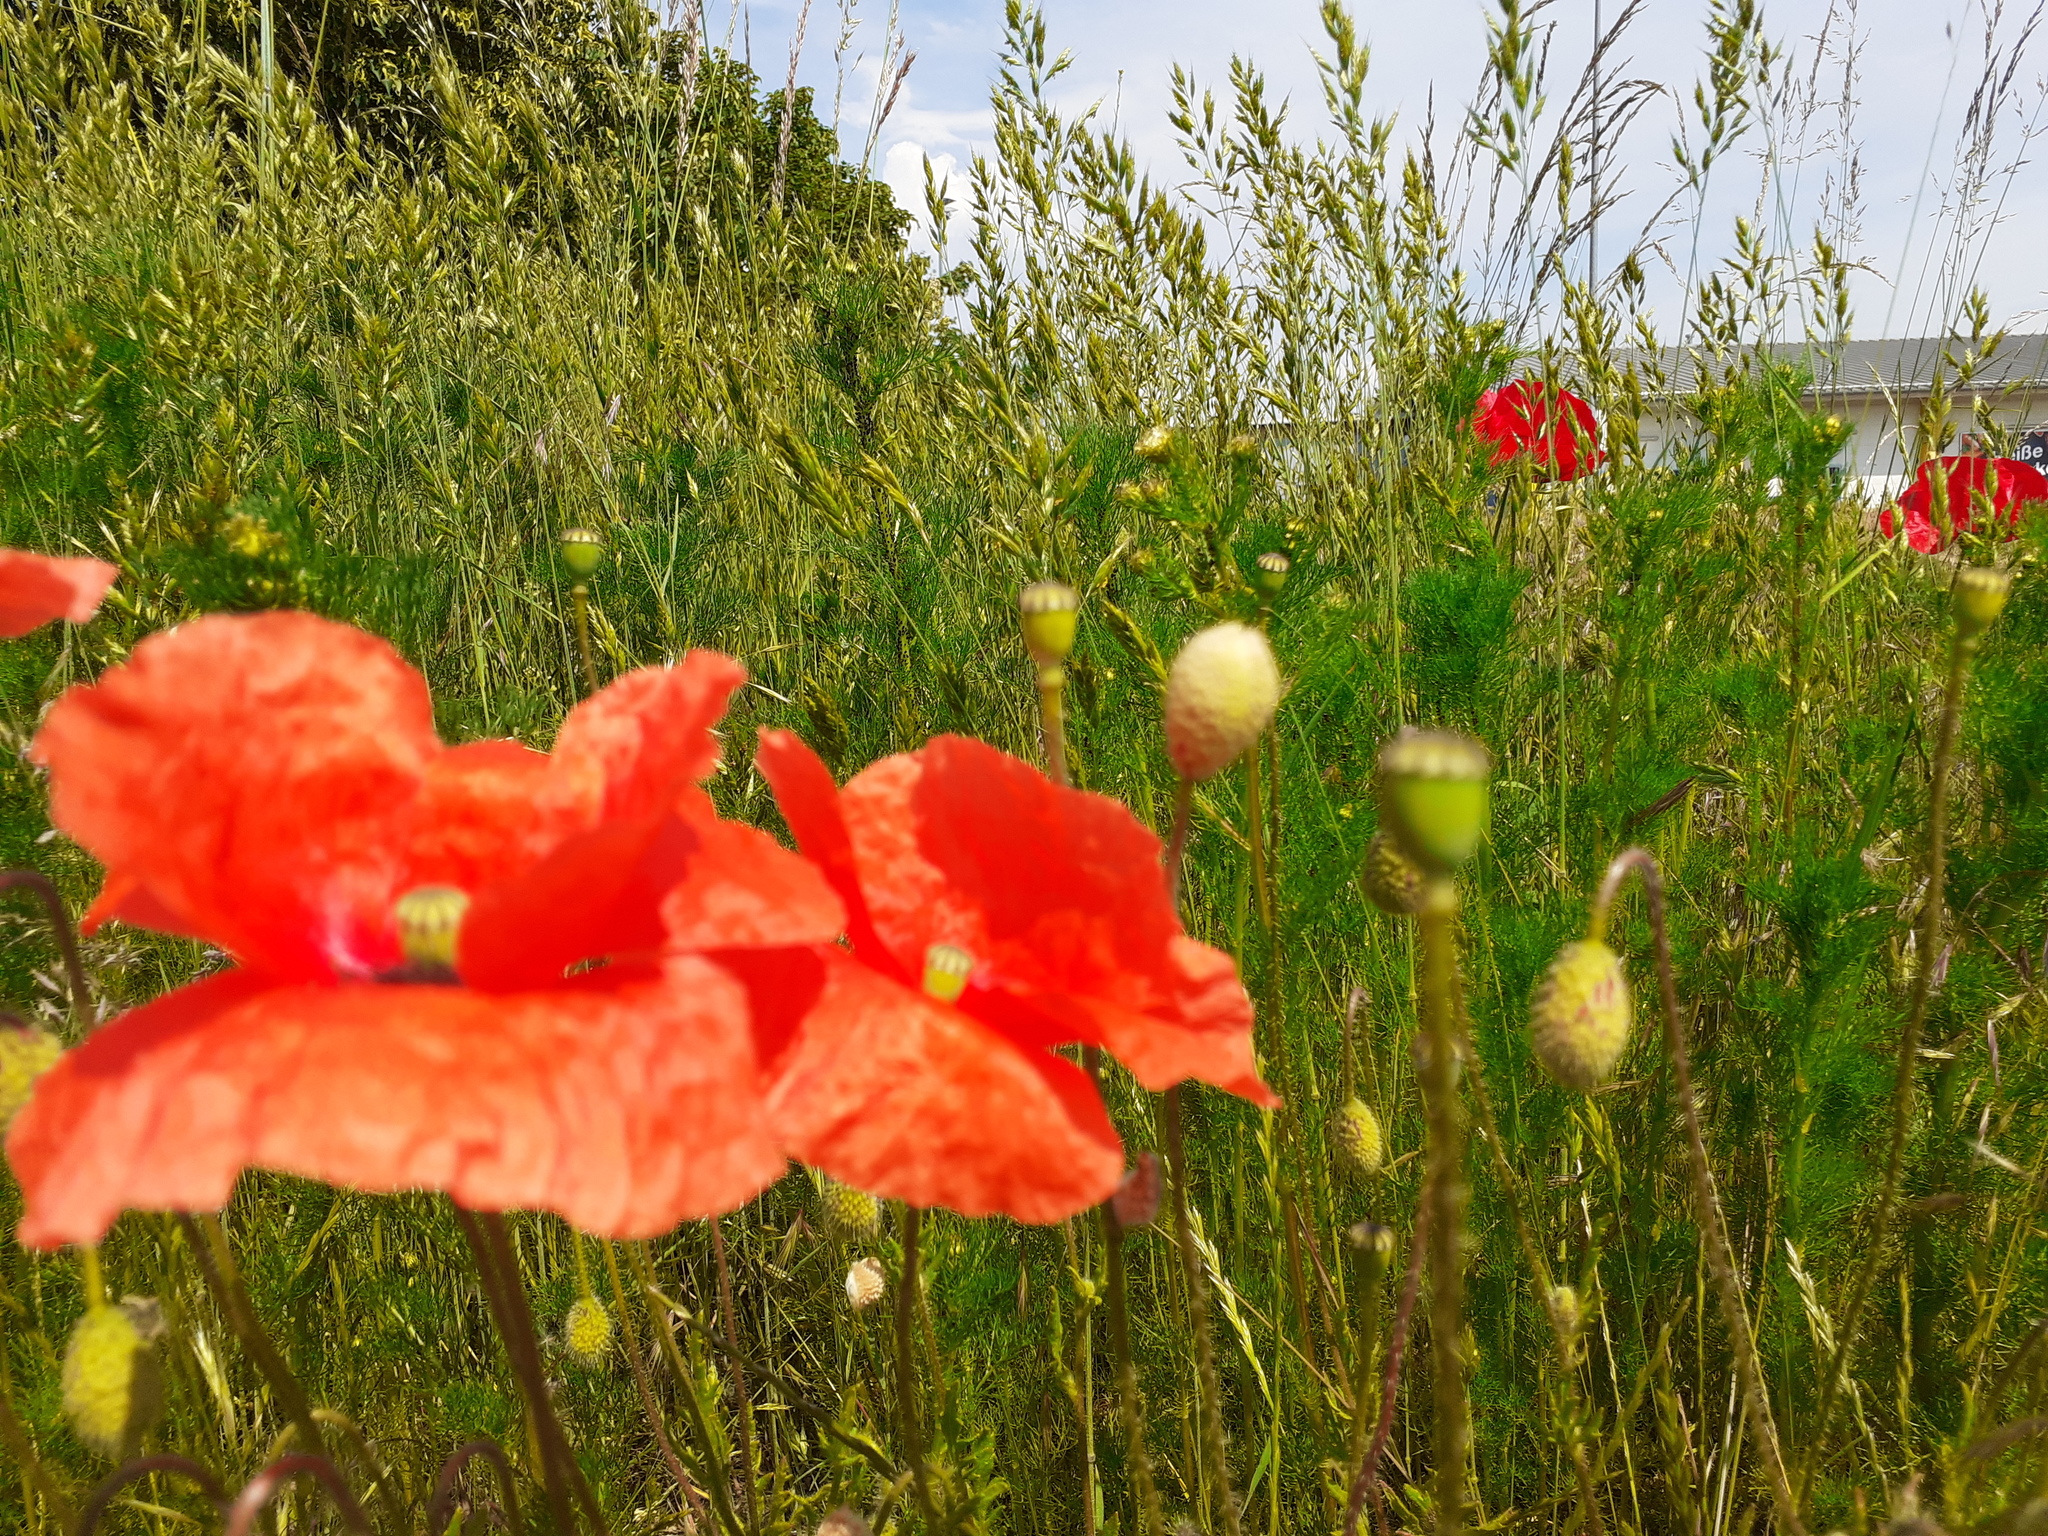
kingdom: Plantae
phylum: Tracheophyta
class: Magnoliopsida
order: Ranunculales
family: Papaveraceae
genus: Papaver
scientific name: Papaver rhoeas
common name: Corn poppy
